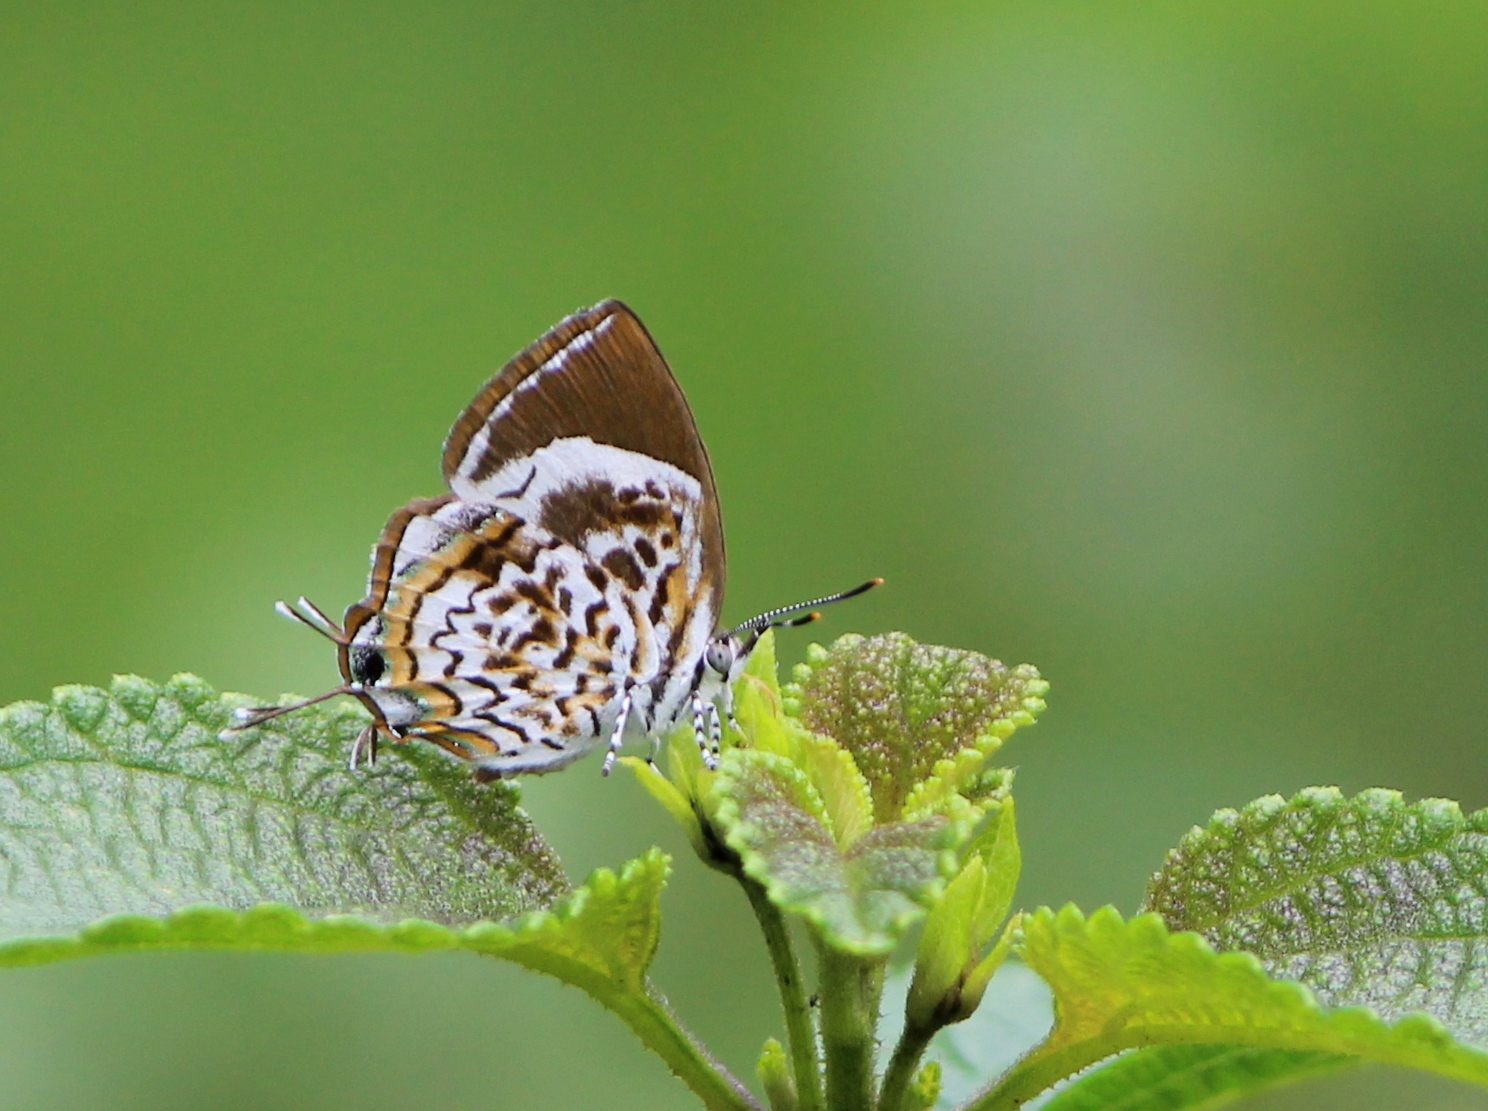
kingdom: Animalia
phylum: Arthropoda
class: Insecta
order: Lepidoptera
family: Lycaenidae
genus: Rathinda
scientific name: Rathinda amor
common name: Monkey puzzle
